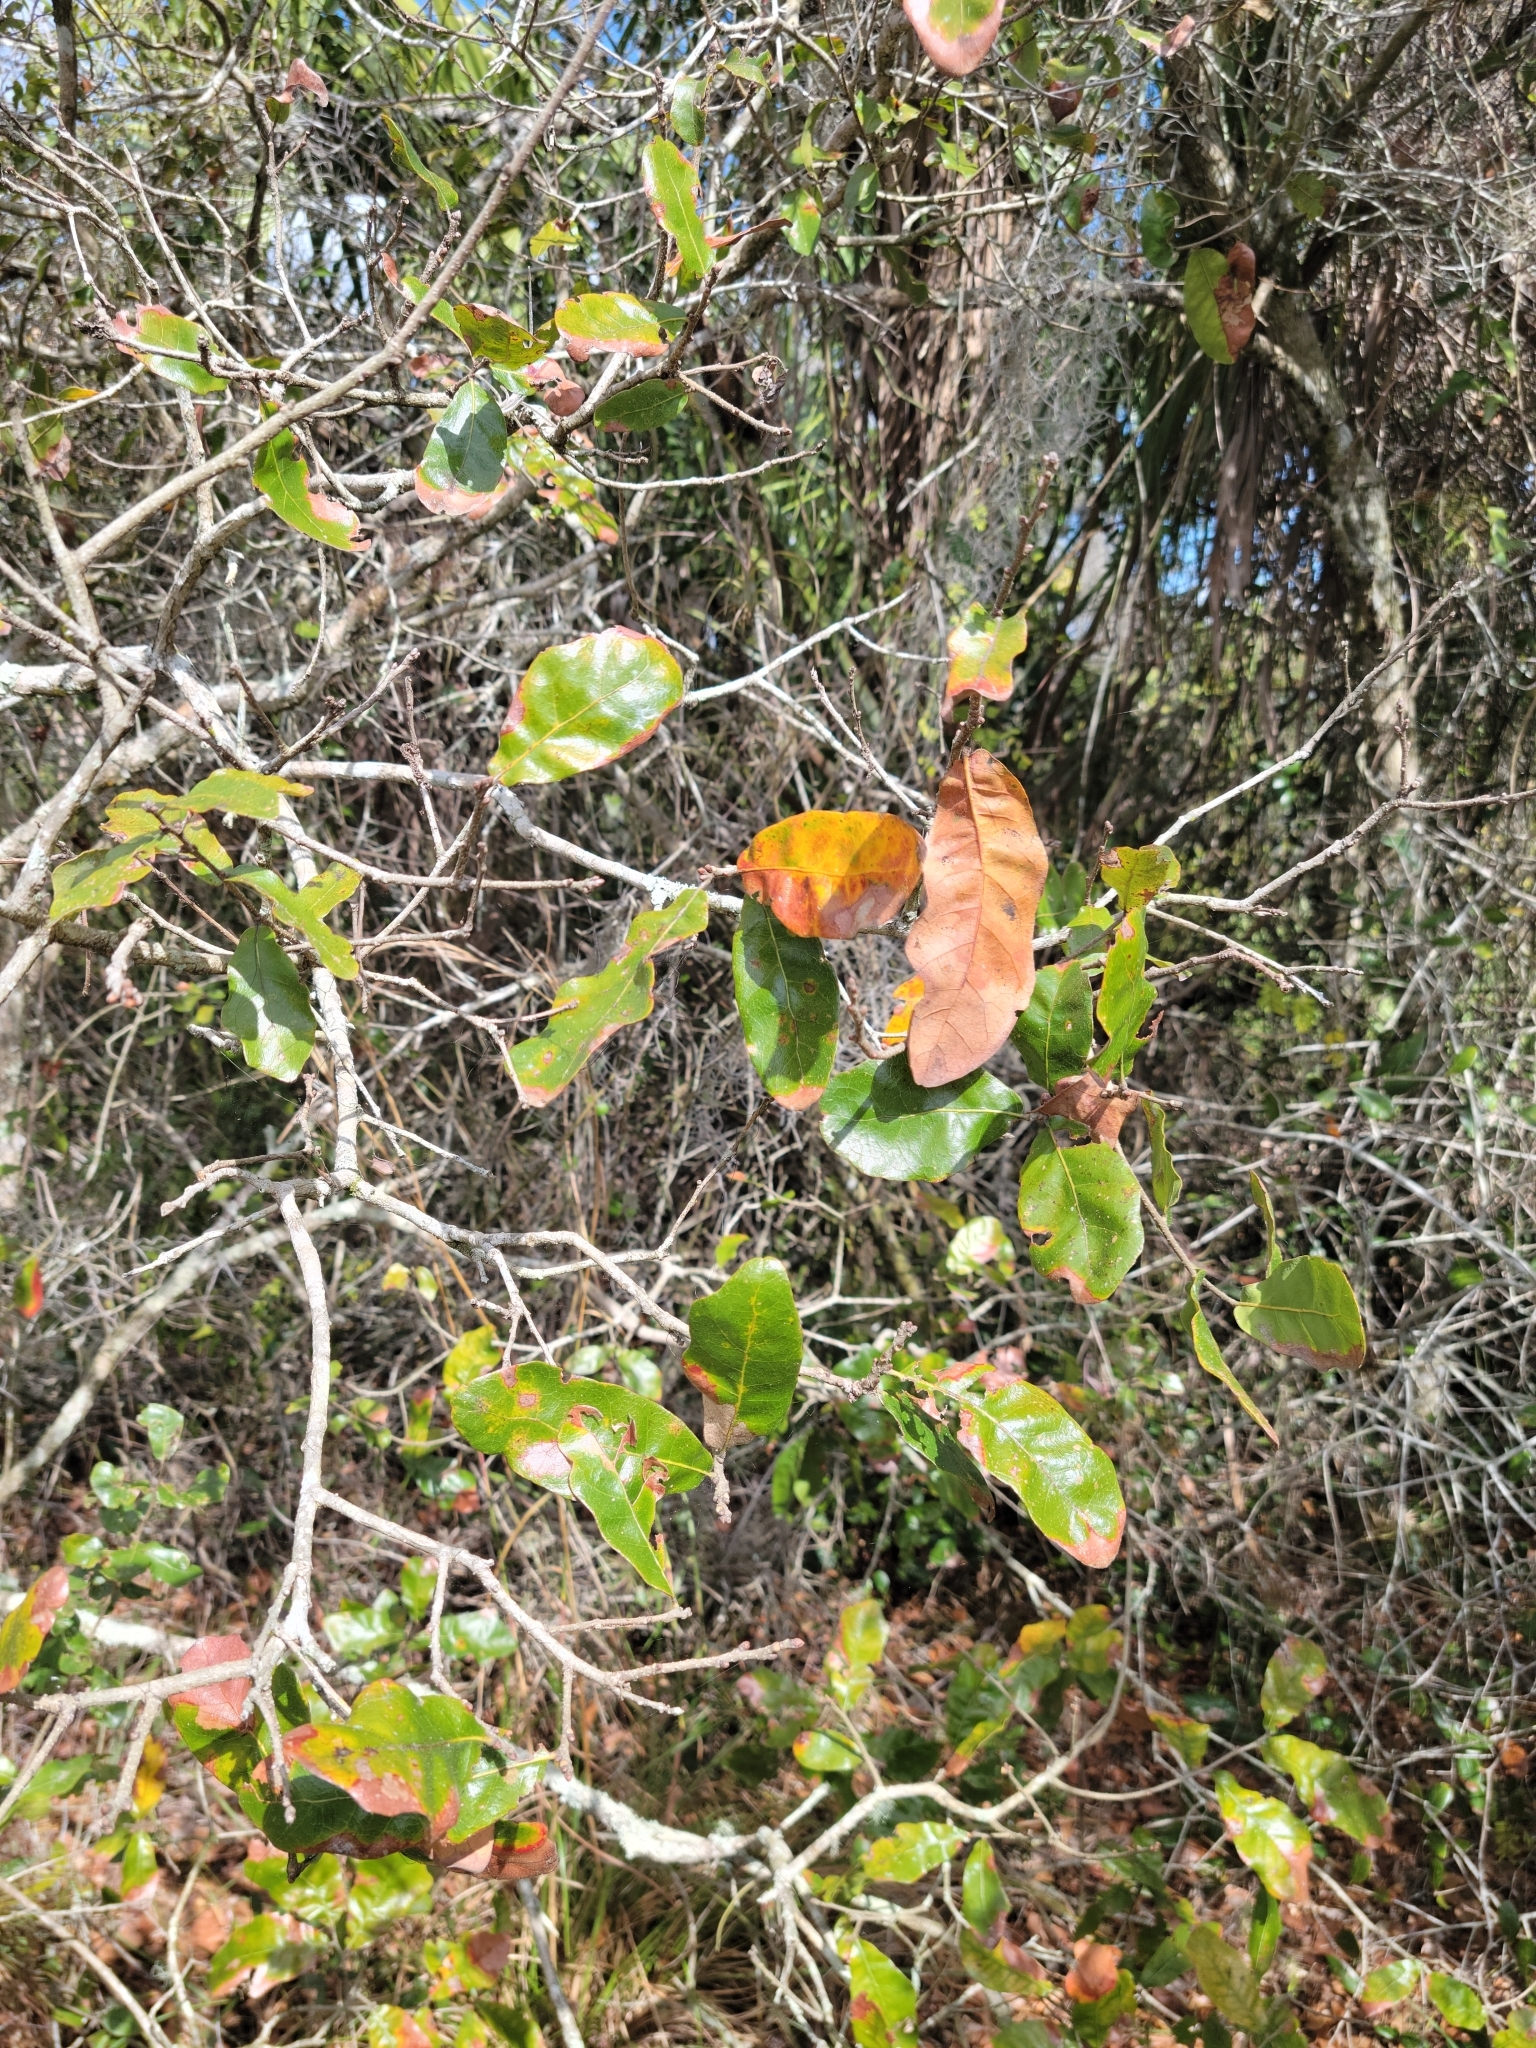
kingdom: Plantae
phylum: Tracheophyta
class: Magnoliopsida
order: Fagales
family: Fagaceae
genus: Quercus
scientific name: Quercus chapmanii
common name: Chapman oak
